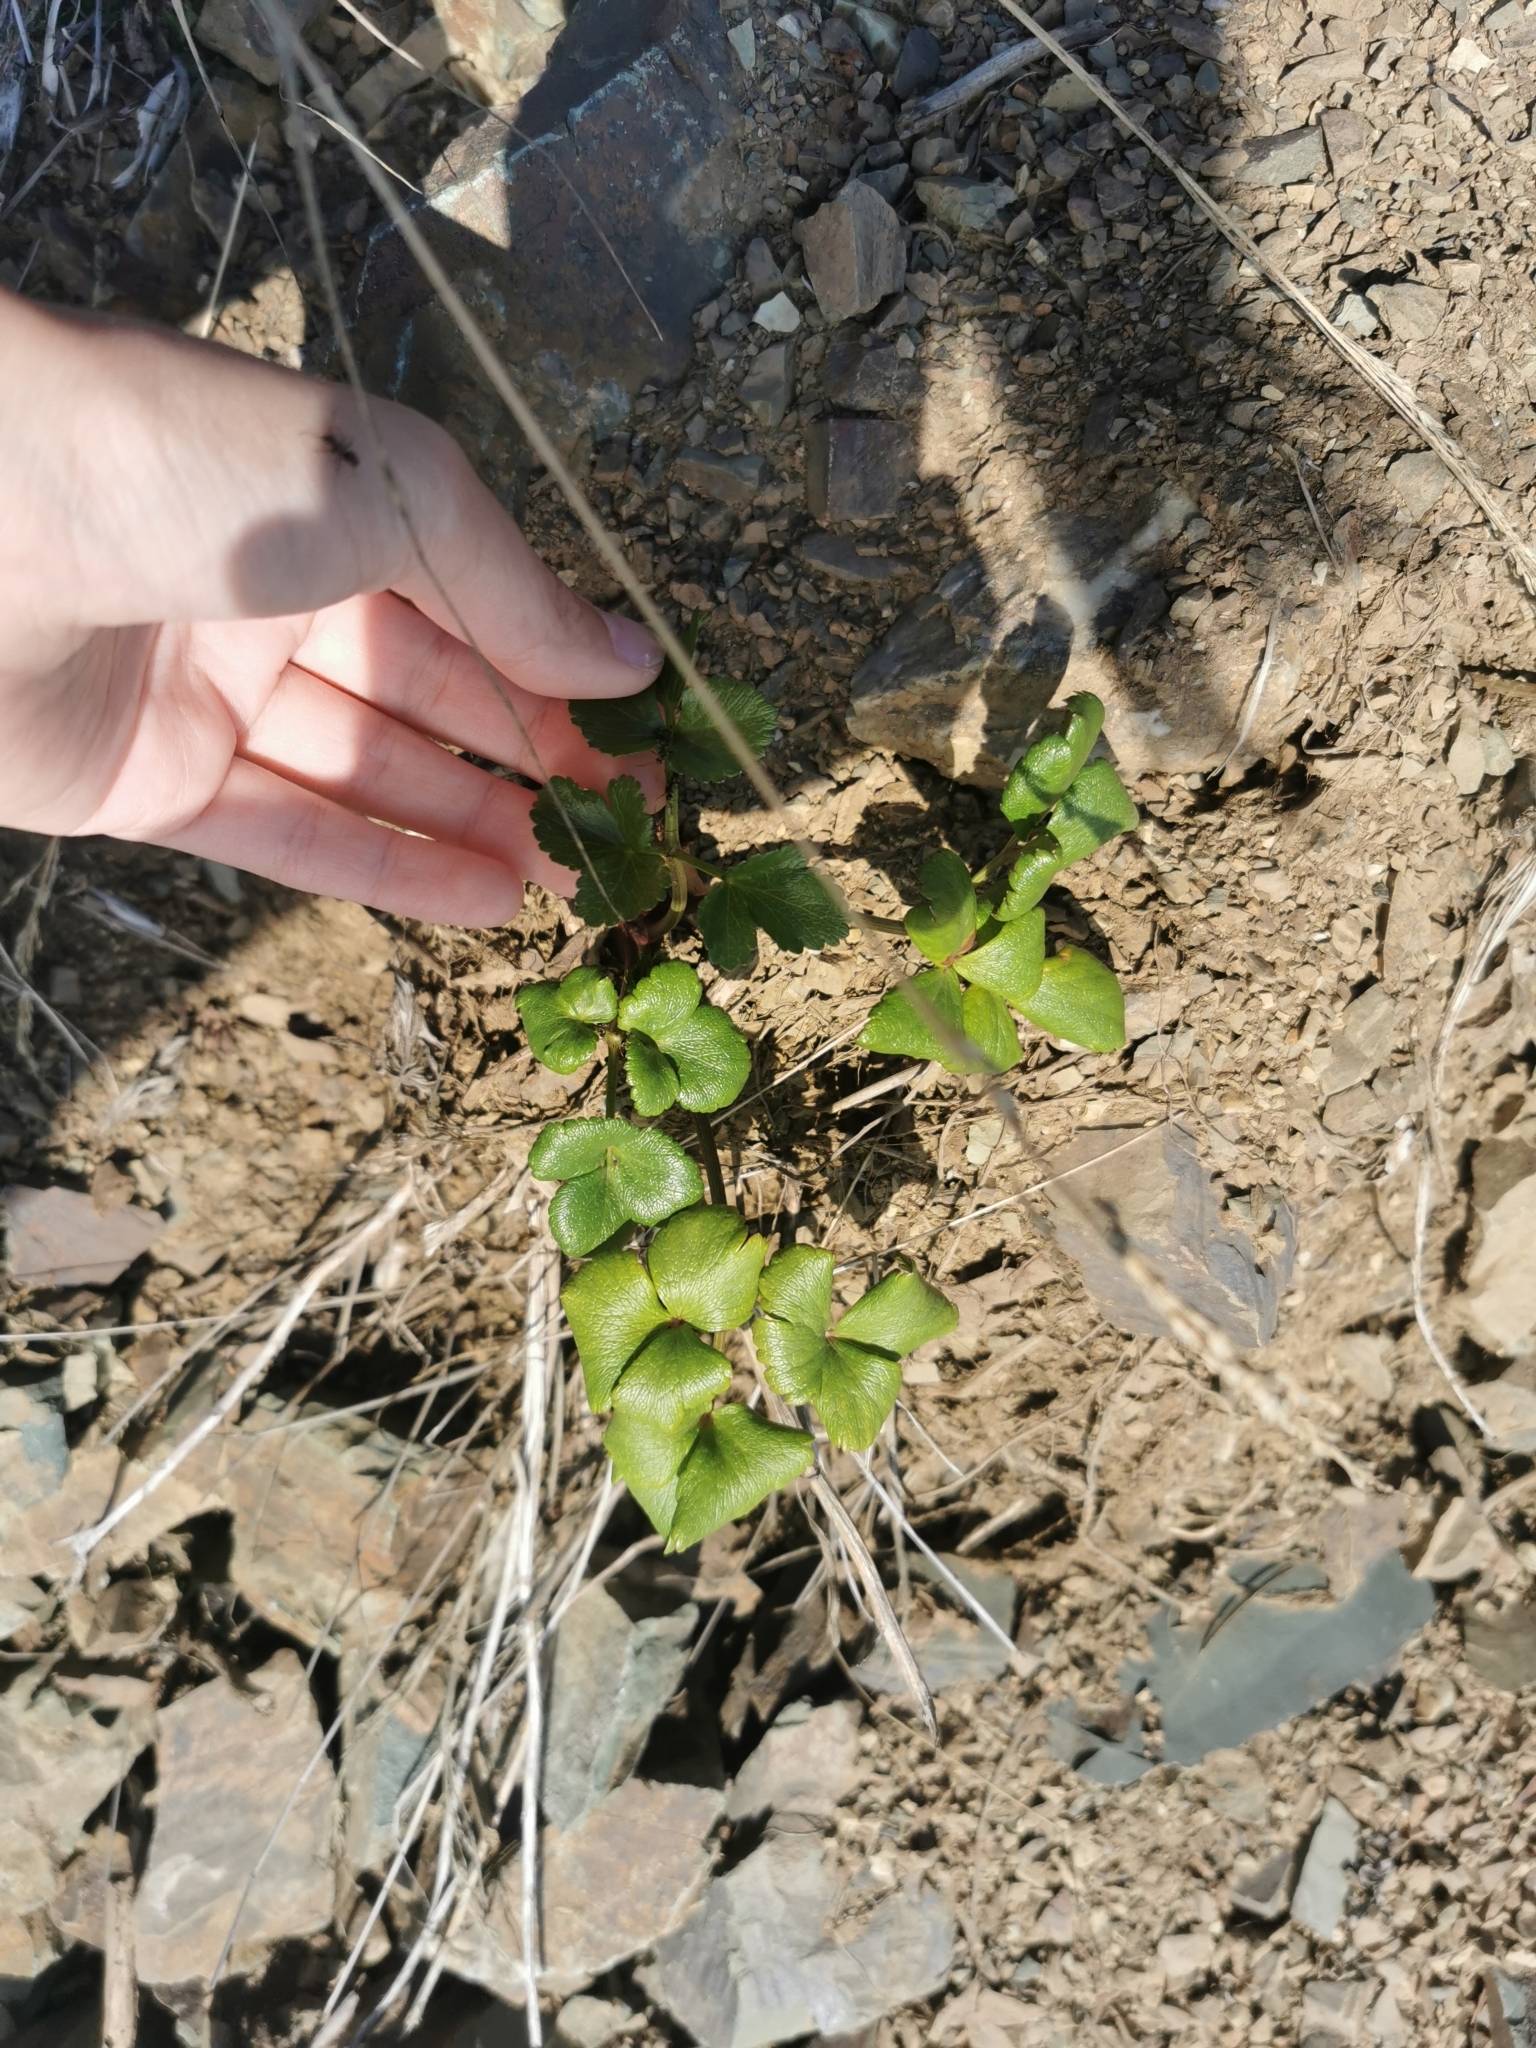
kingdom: Plantae
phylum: Tracheophyta
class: Magnoliopsida
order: Apiales
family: Apiaceae
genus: Ligusticum
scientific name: Ligusticum scothicum
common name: Beach lovage
